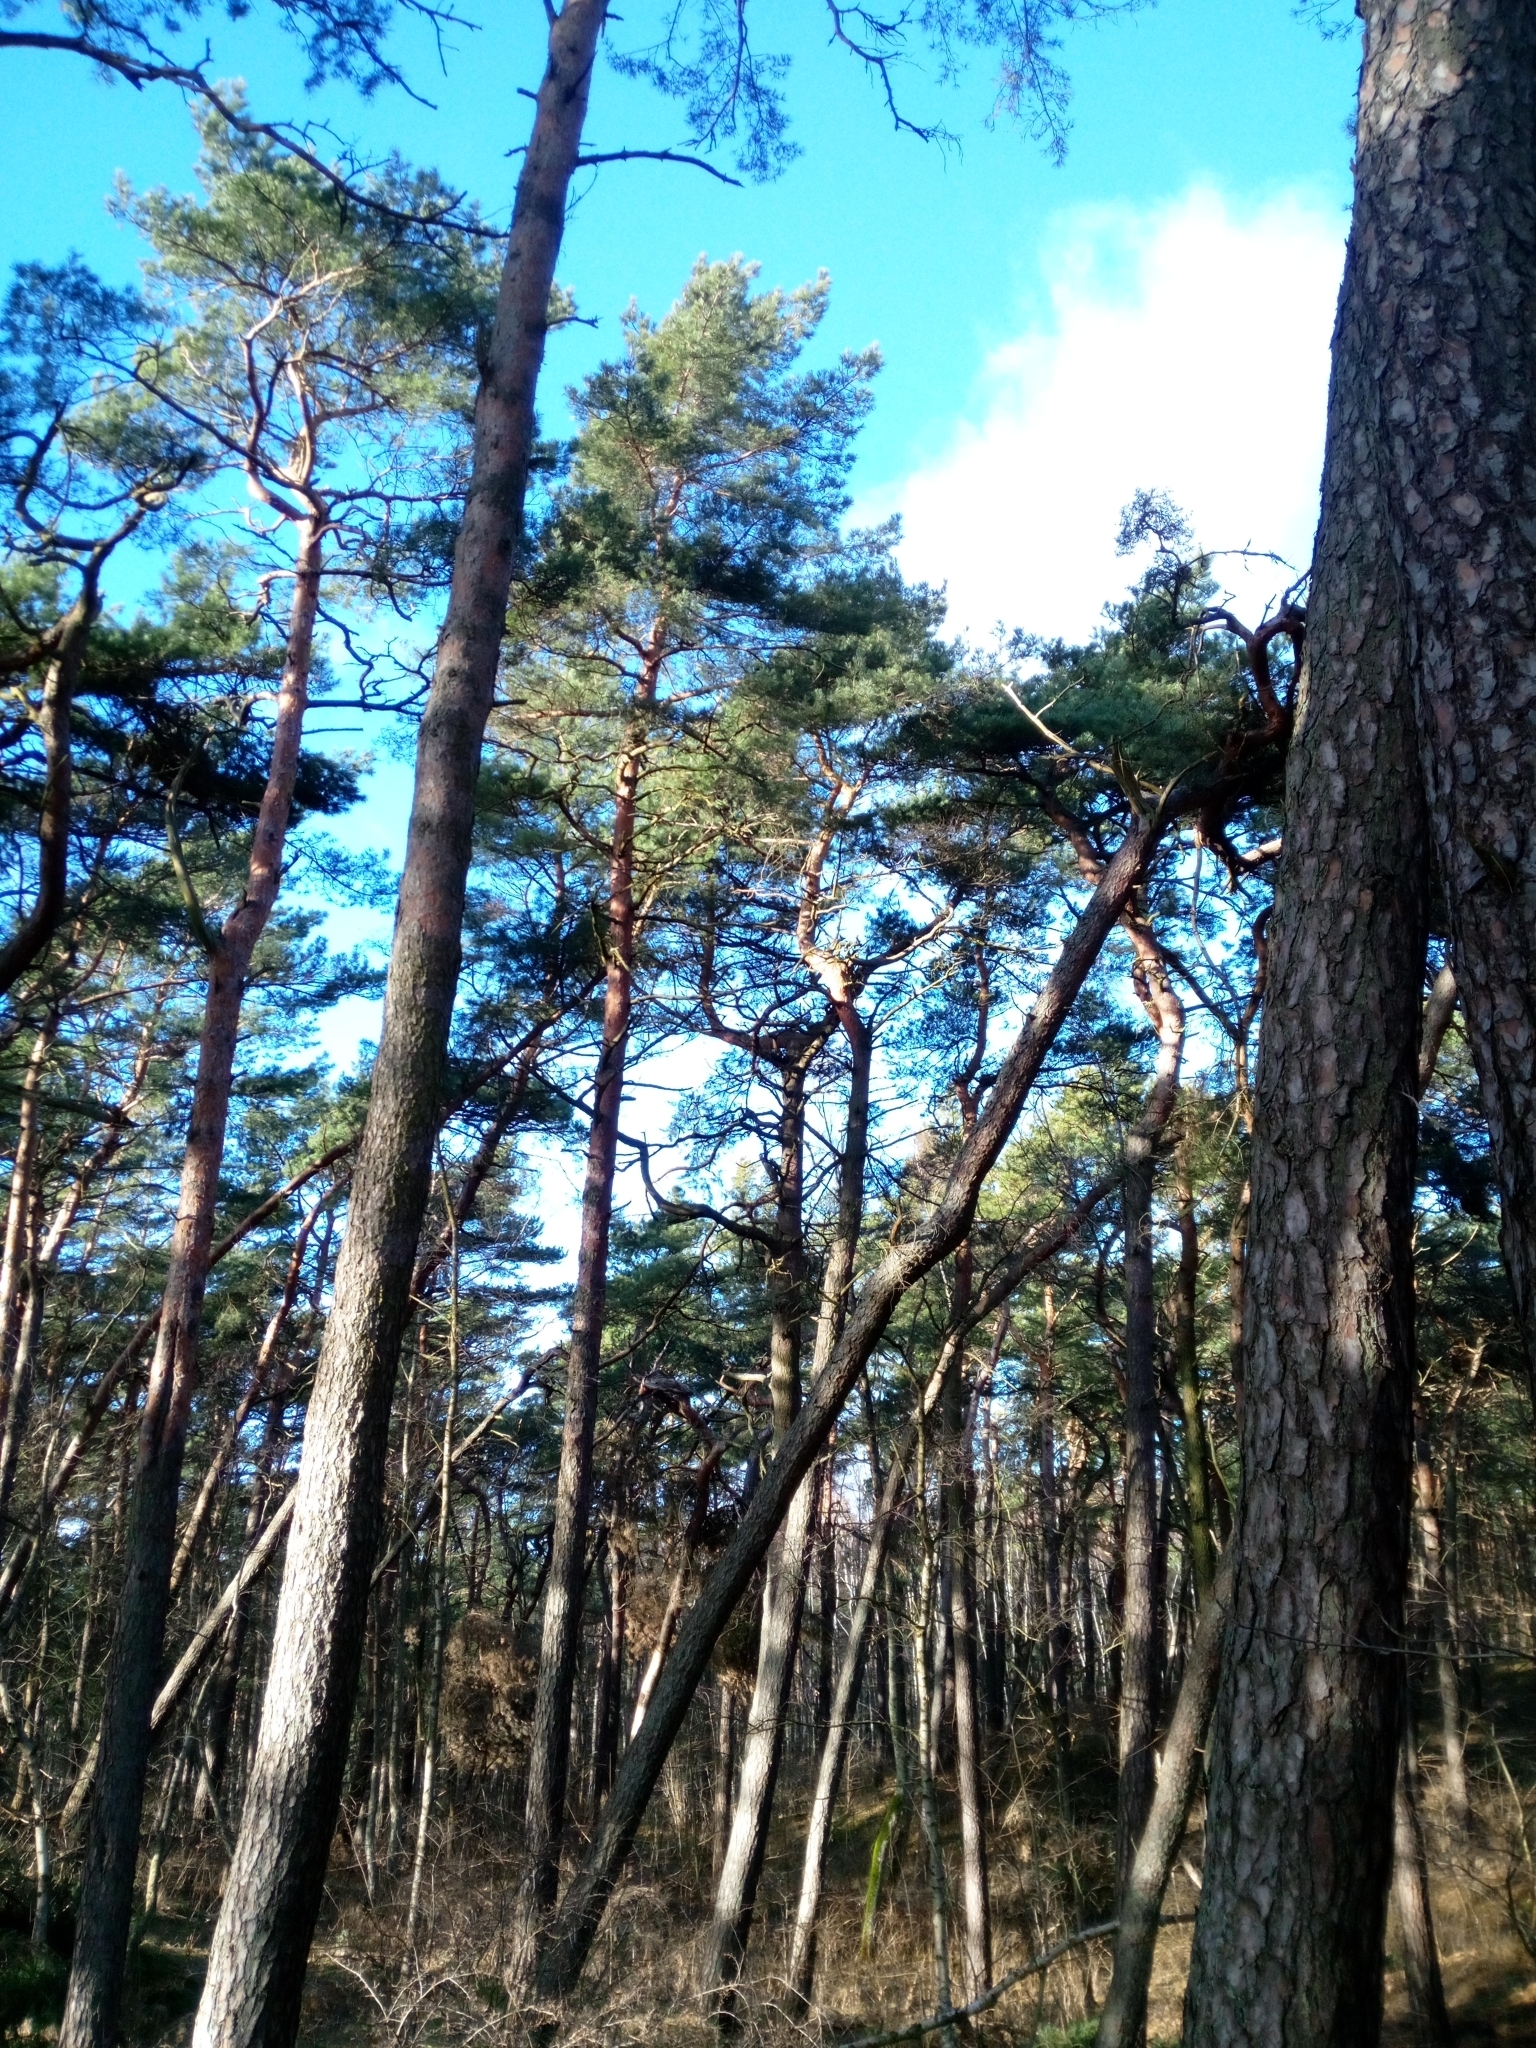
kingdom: Plantae
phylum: Tracheophyta
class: Pinopsida
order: Pinales
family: Pinaceae
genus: Pinus
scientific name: Pinus sylvestris
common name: Scots pine
